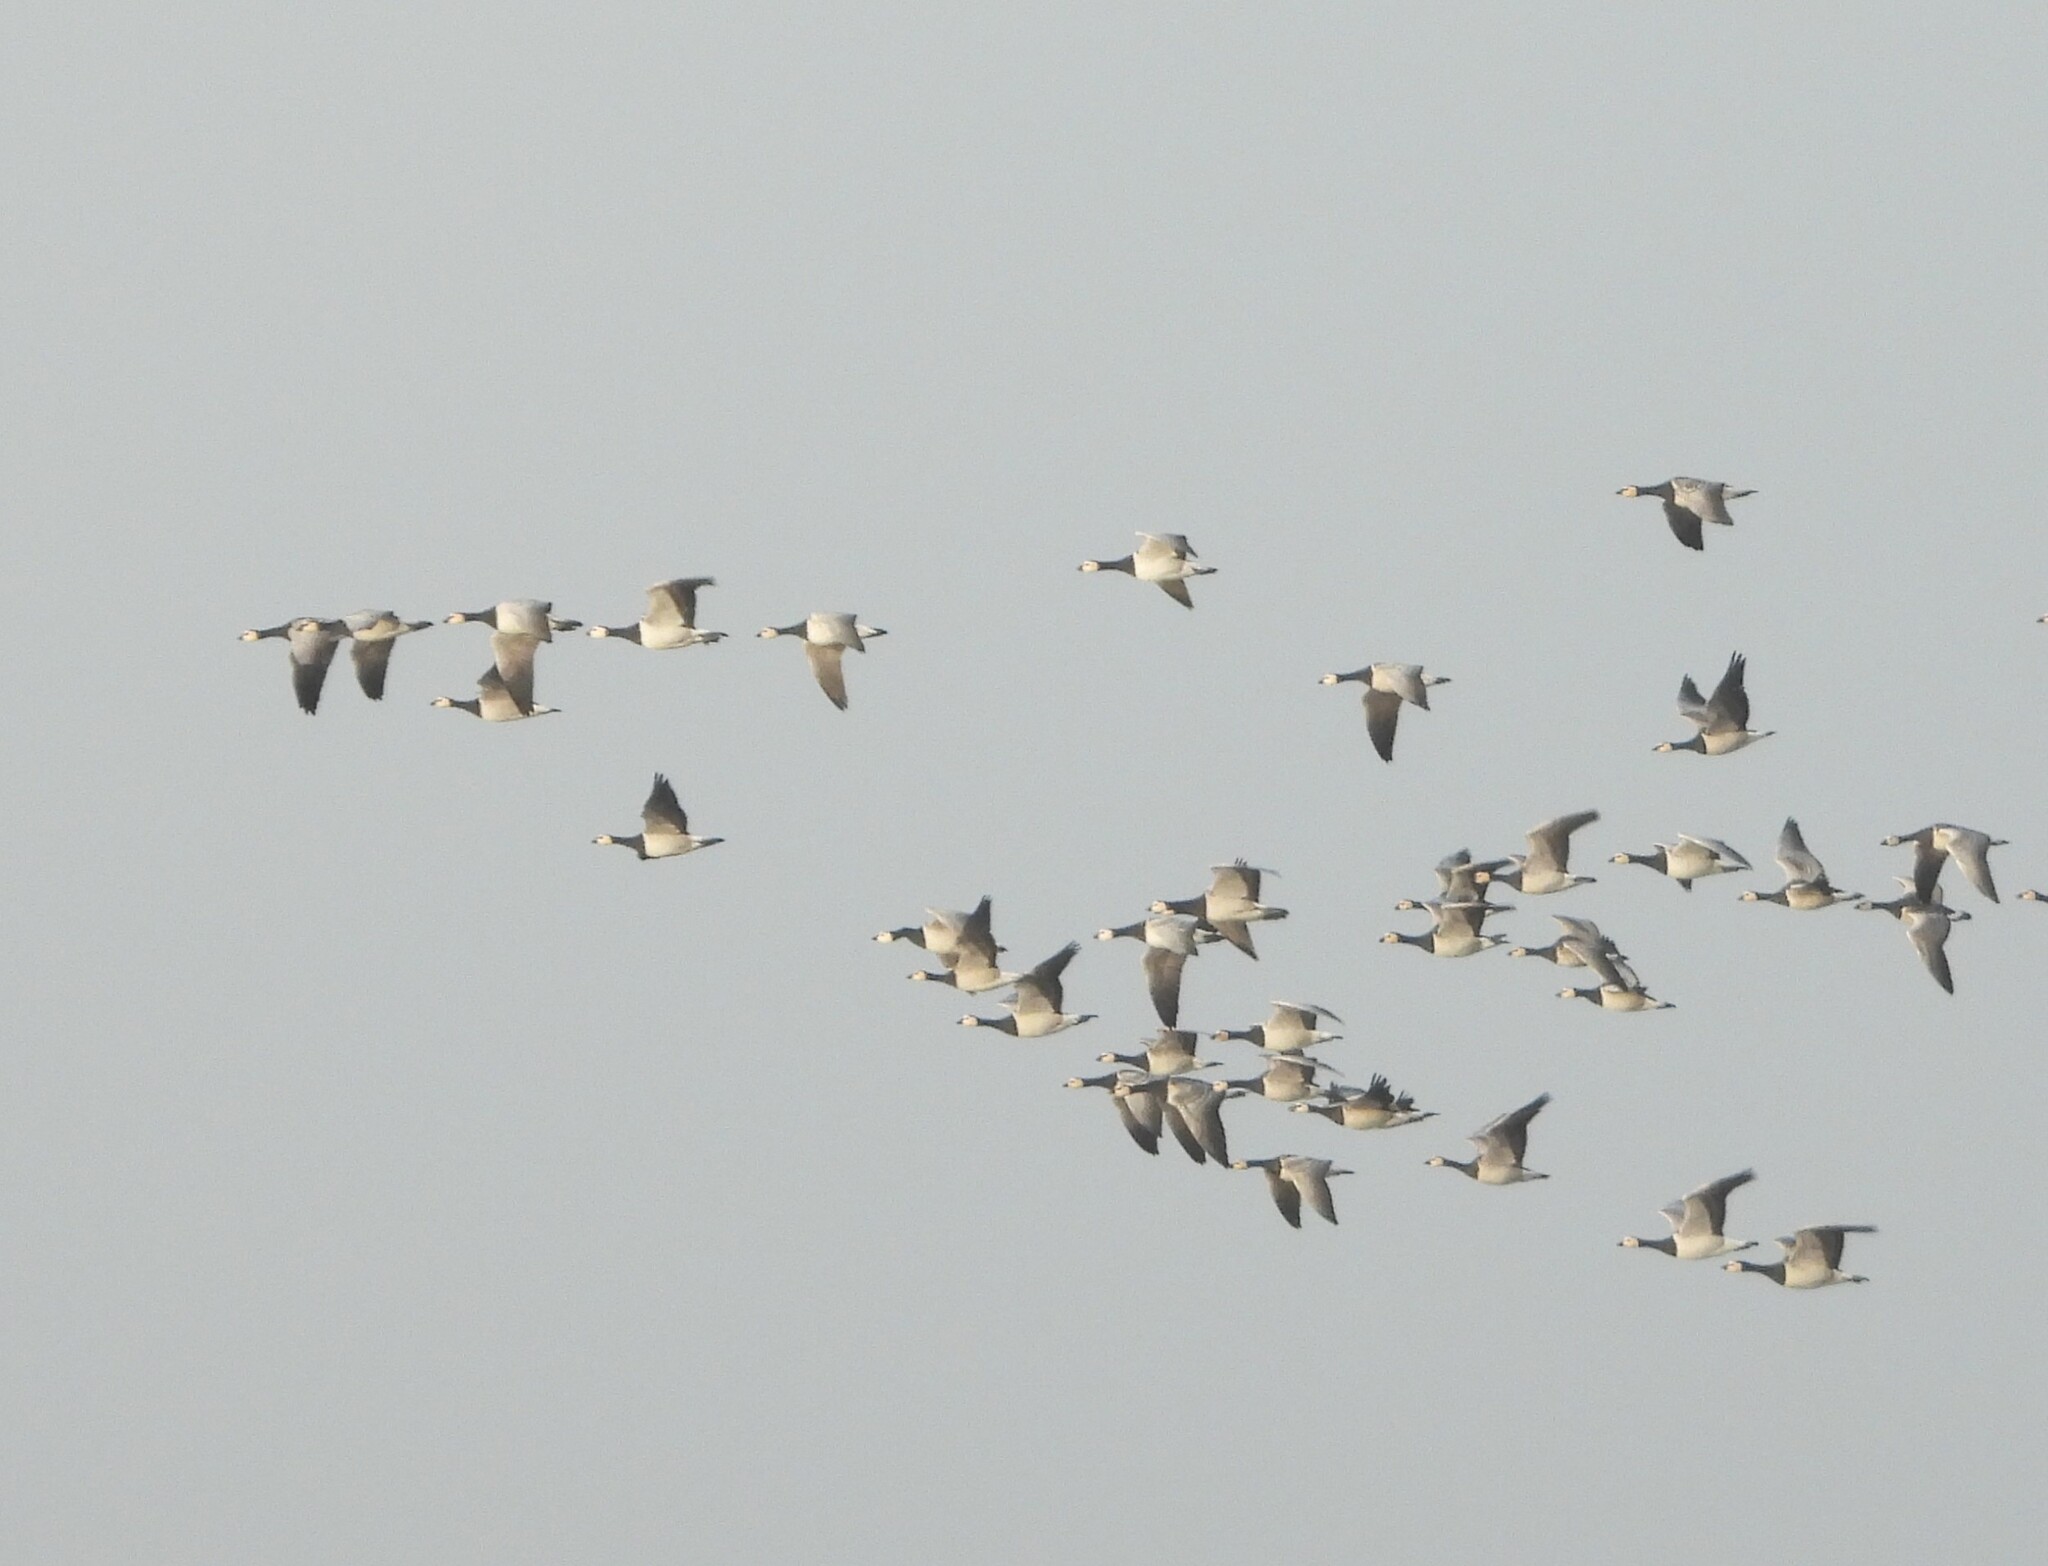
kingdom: Animalia
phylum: Chordata
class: Aves
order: Anseriformes
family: Anatidae
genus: Branta
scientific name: Branta leucopsis
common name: Barnacle goose
